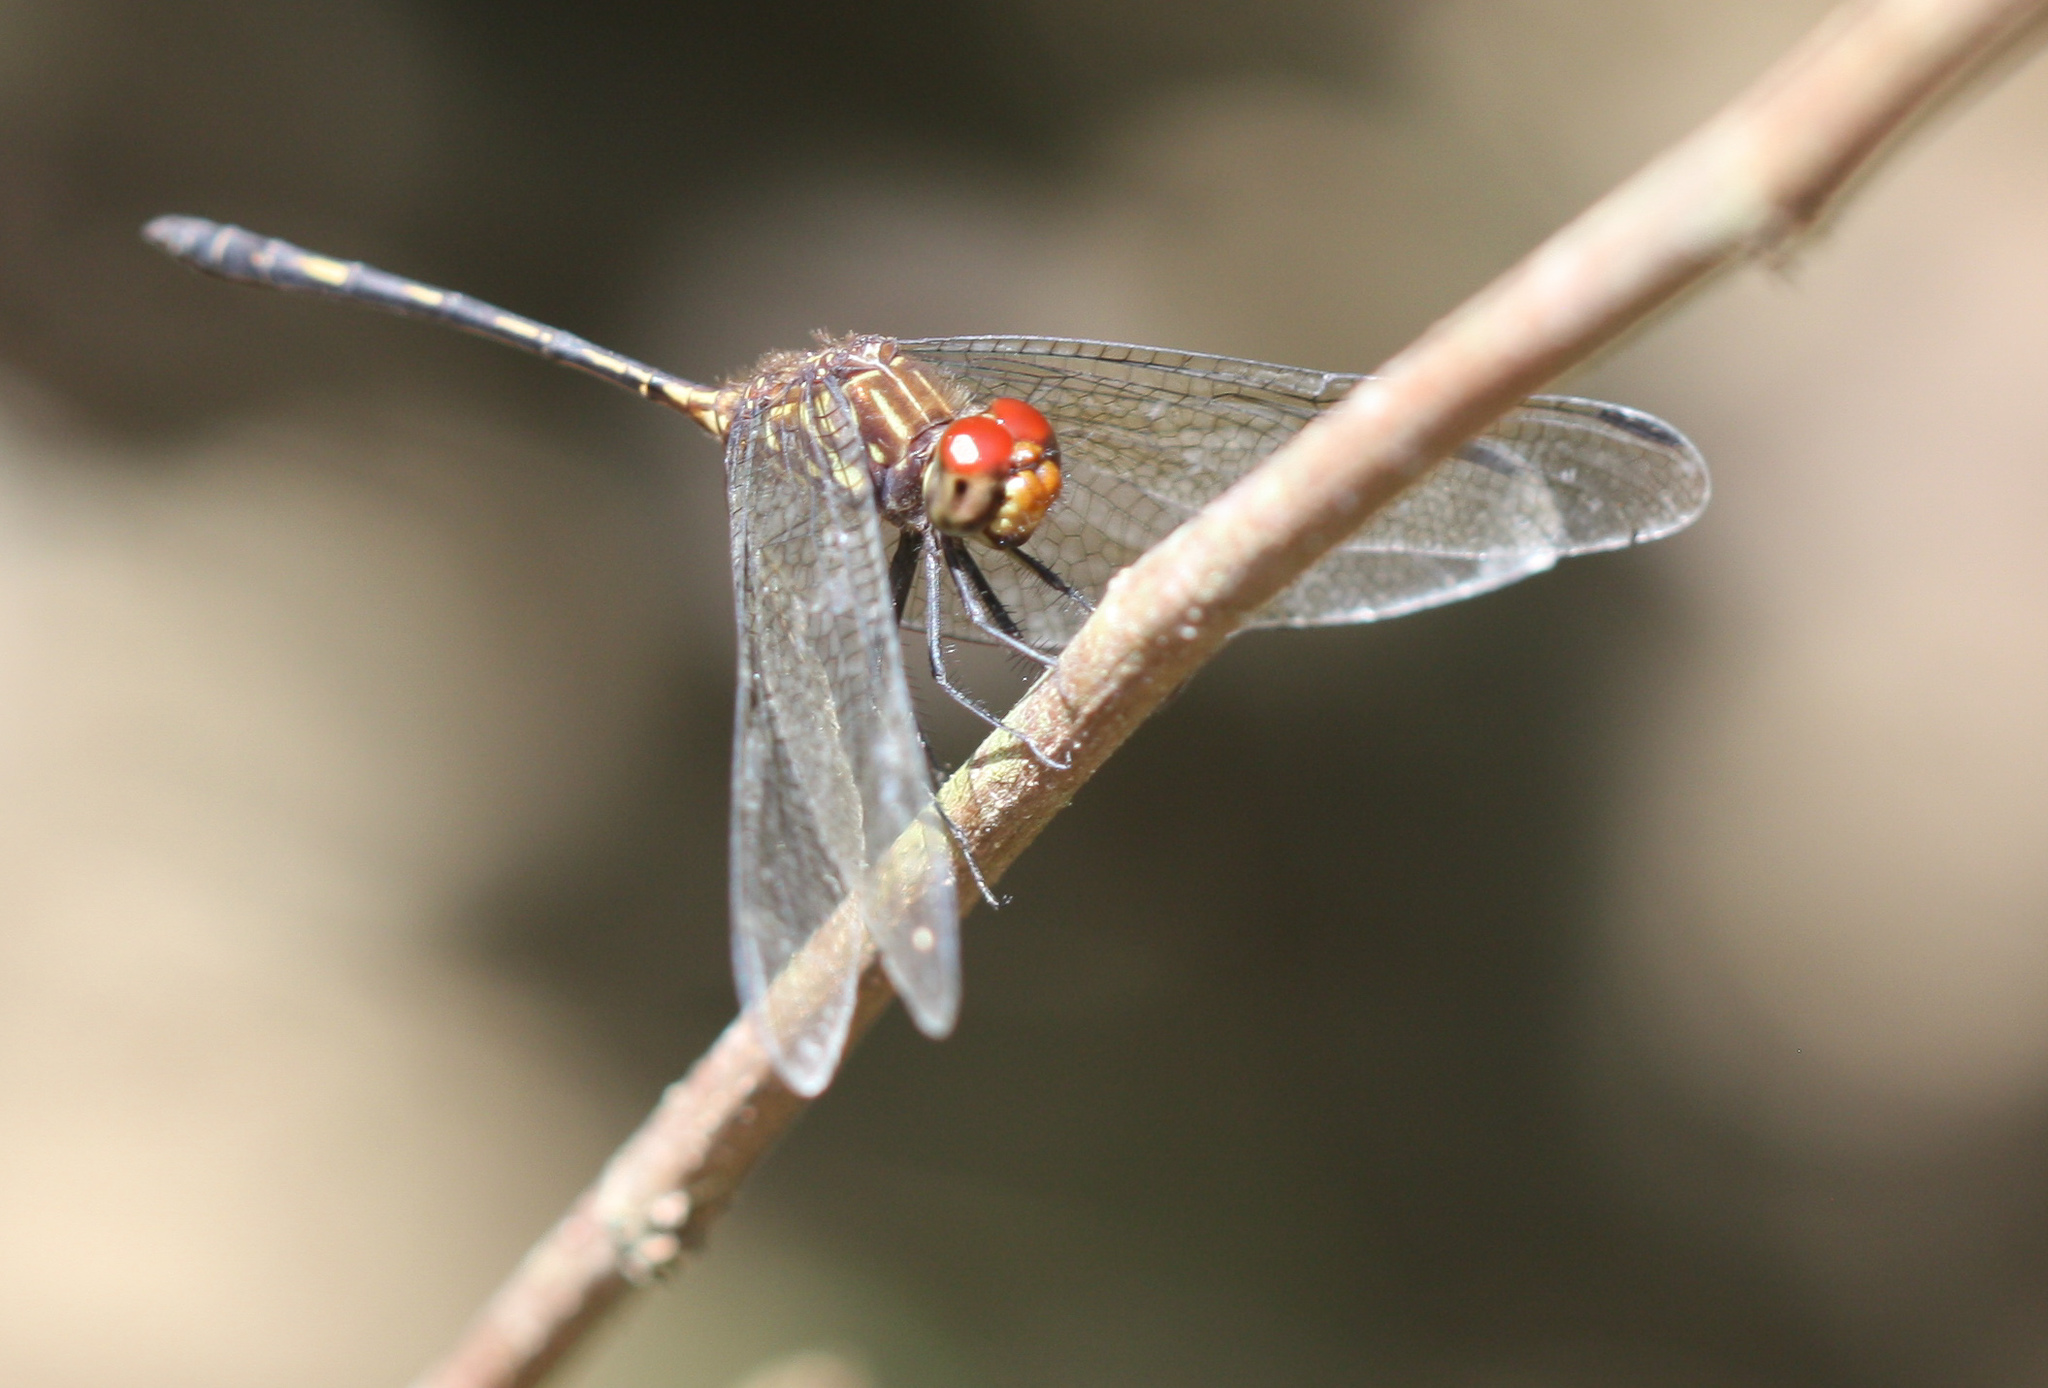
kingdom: Animalia
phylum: Arthropoda
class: Insecta
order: Odonata
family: Libellulidae
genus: Dythemis
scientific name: Dythemis sterilis
